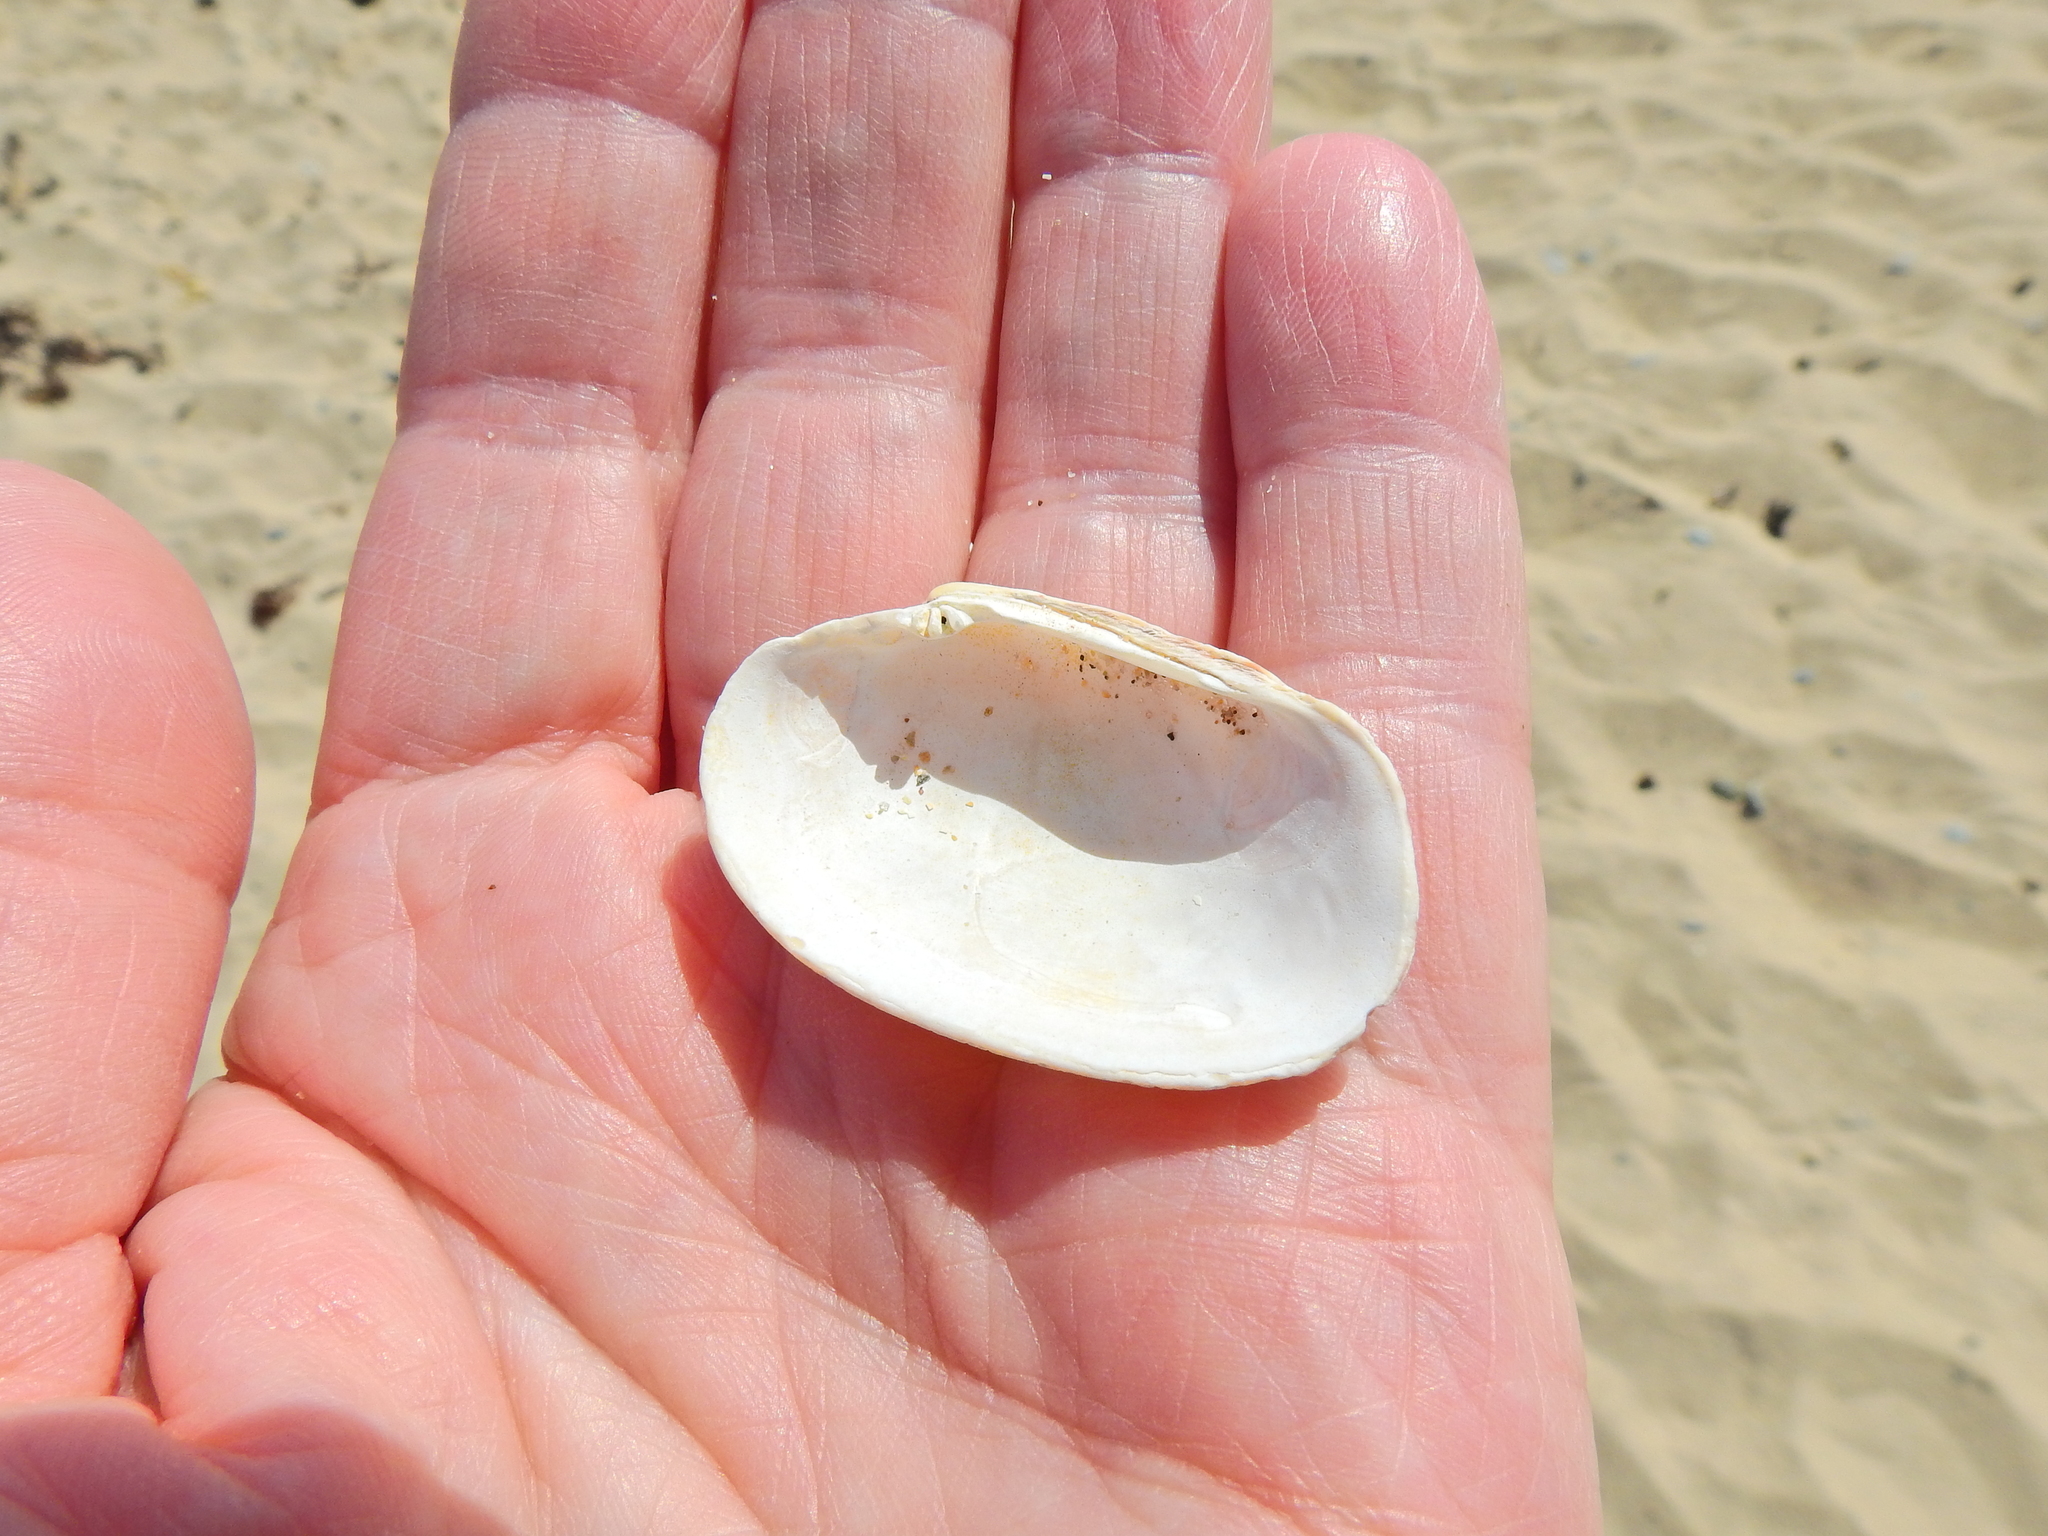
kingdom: Animalia
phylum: Mollusca
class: Bivalvia
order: Venerida
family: Veneridae
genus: Venerupis
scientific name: Venerupis corrugata
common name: Pullet carpet shell
